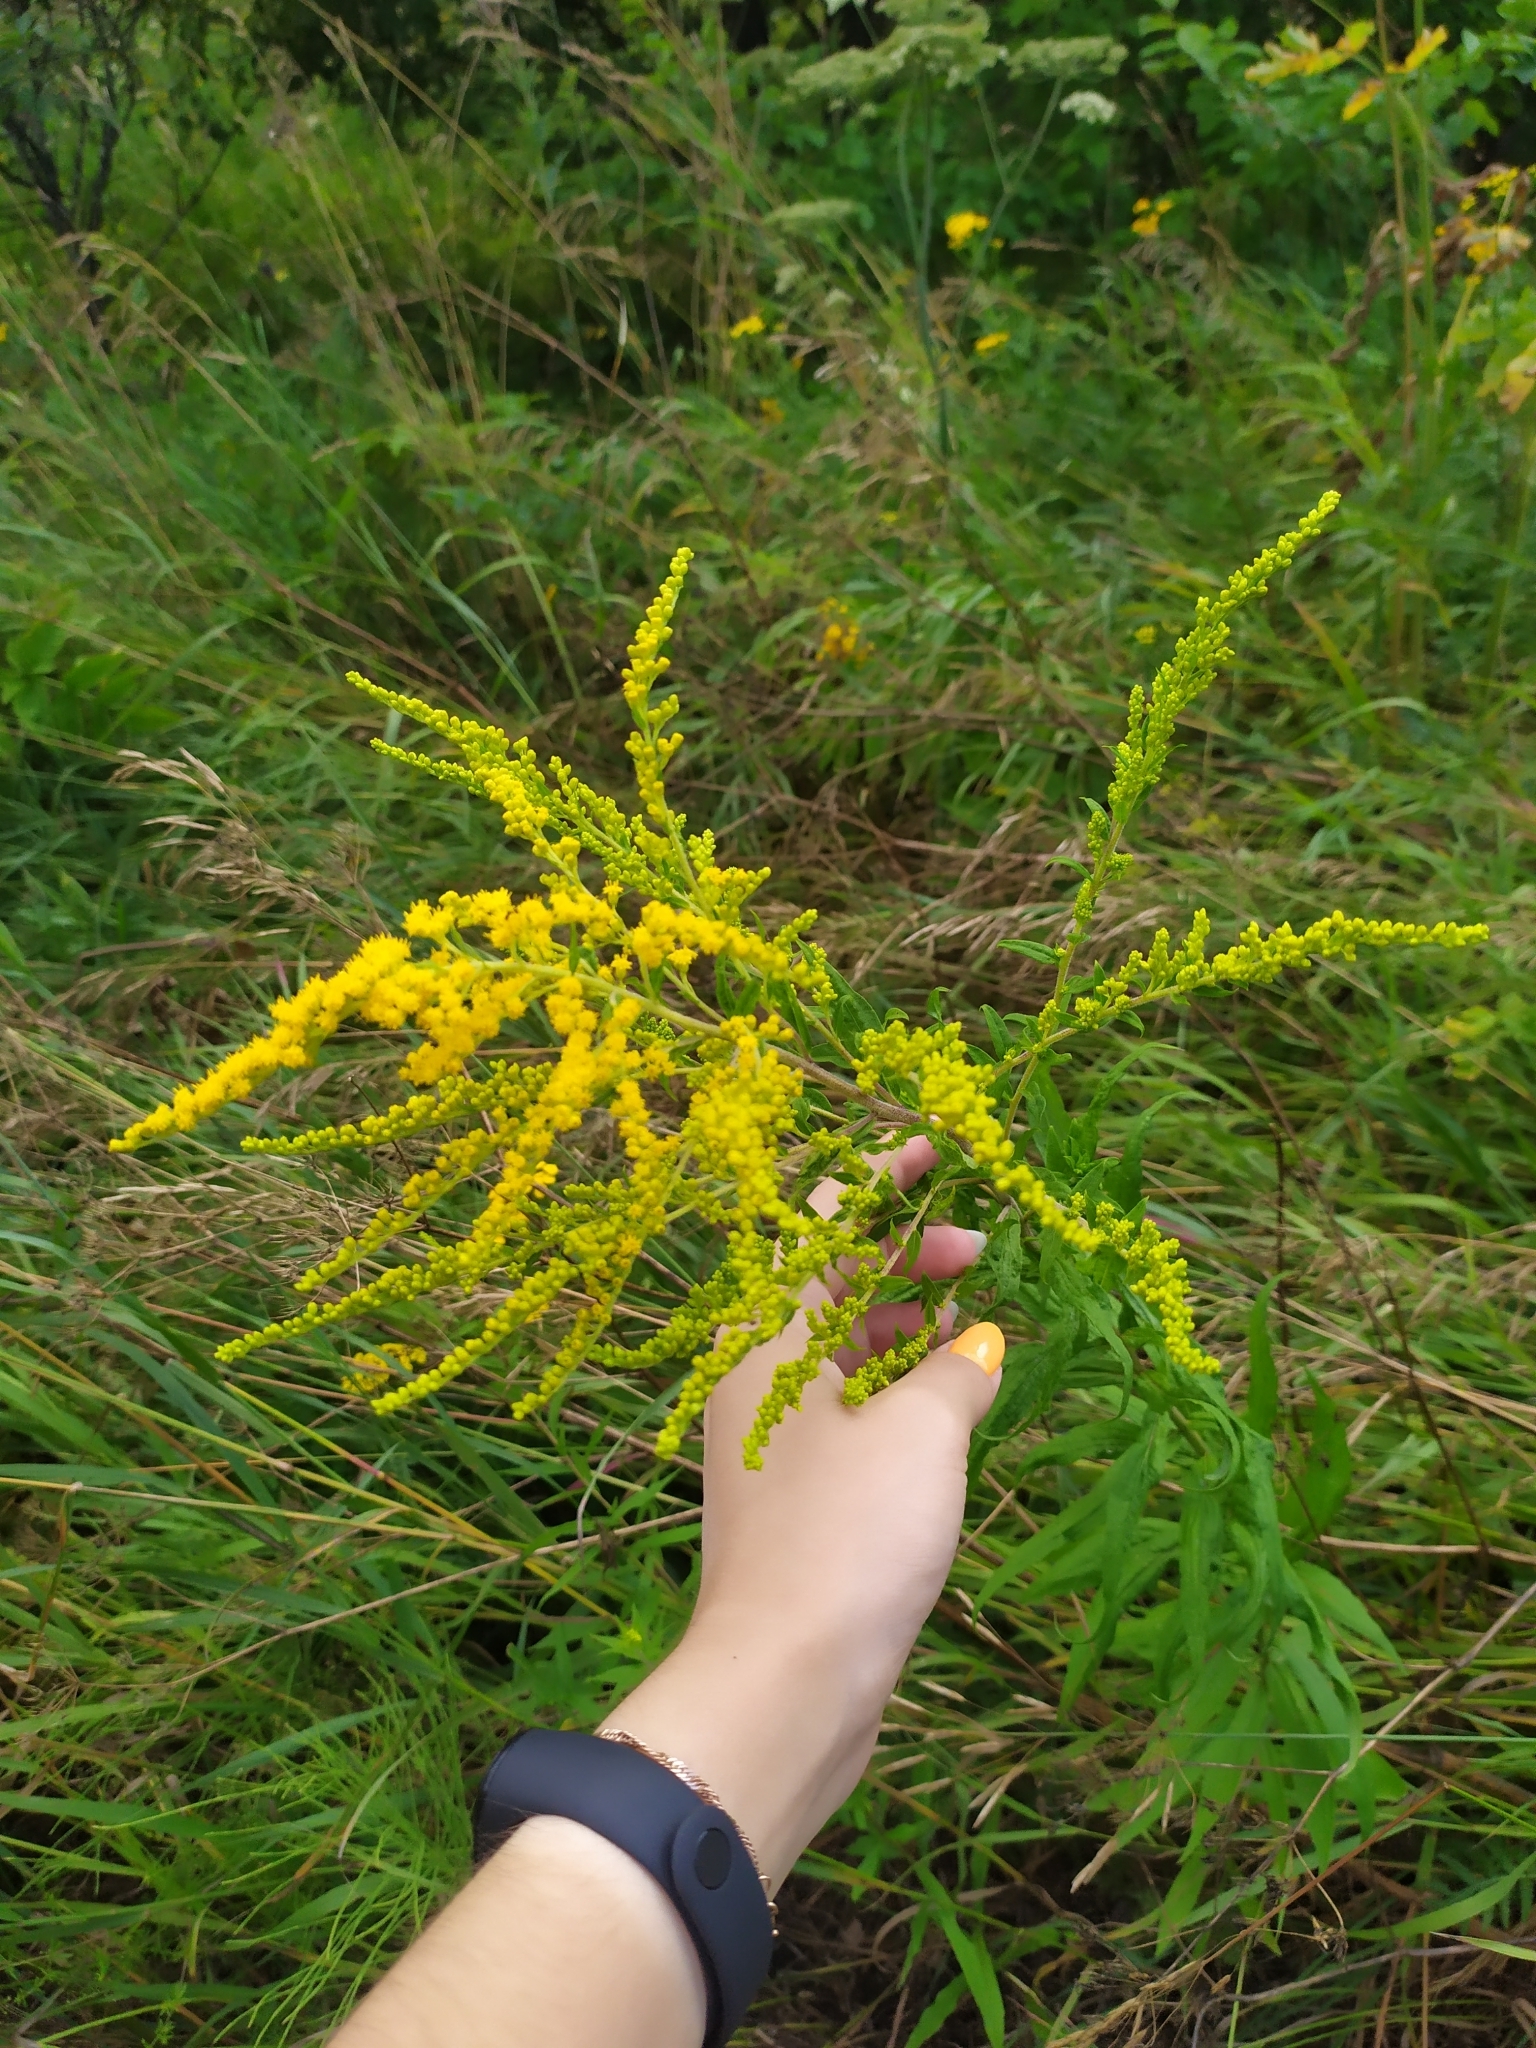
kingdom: Plantae
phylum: Tracheophyta
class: Magnoliopsida
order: Asterales
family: Asteraceae
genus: Solidago
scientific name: Solidago canadensis
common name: Canada goldenrod
